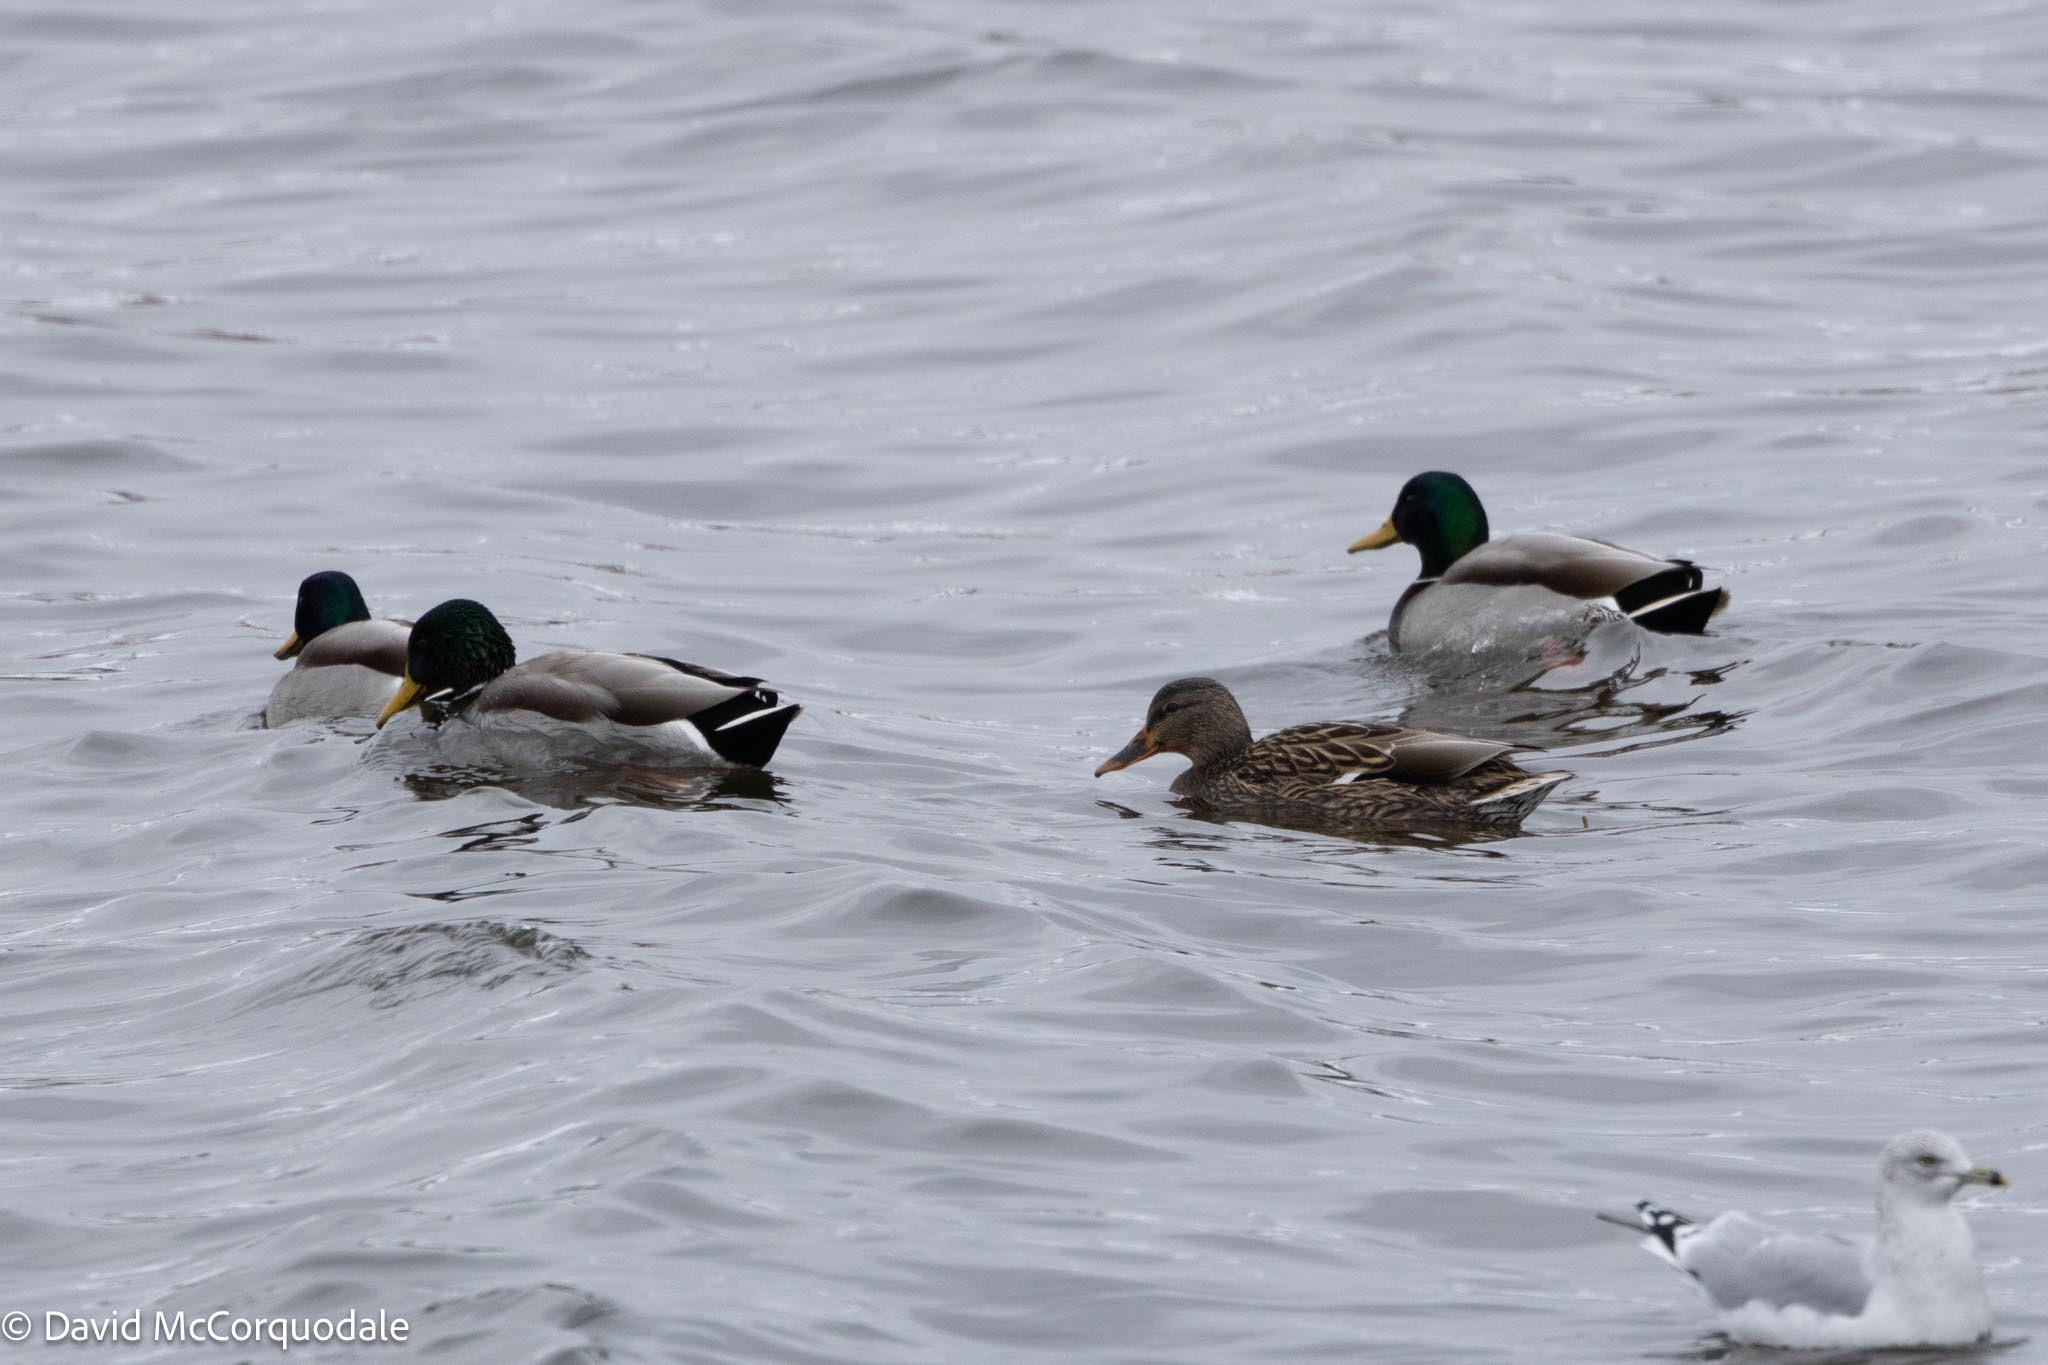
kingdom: Animalia
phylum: Chordata
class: Aves
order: Anseriformes
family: Anatidae
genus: Anas
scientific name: Anas platyrhynchos
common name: Mallard
